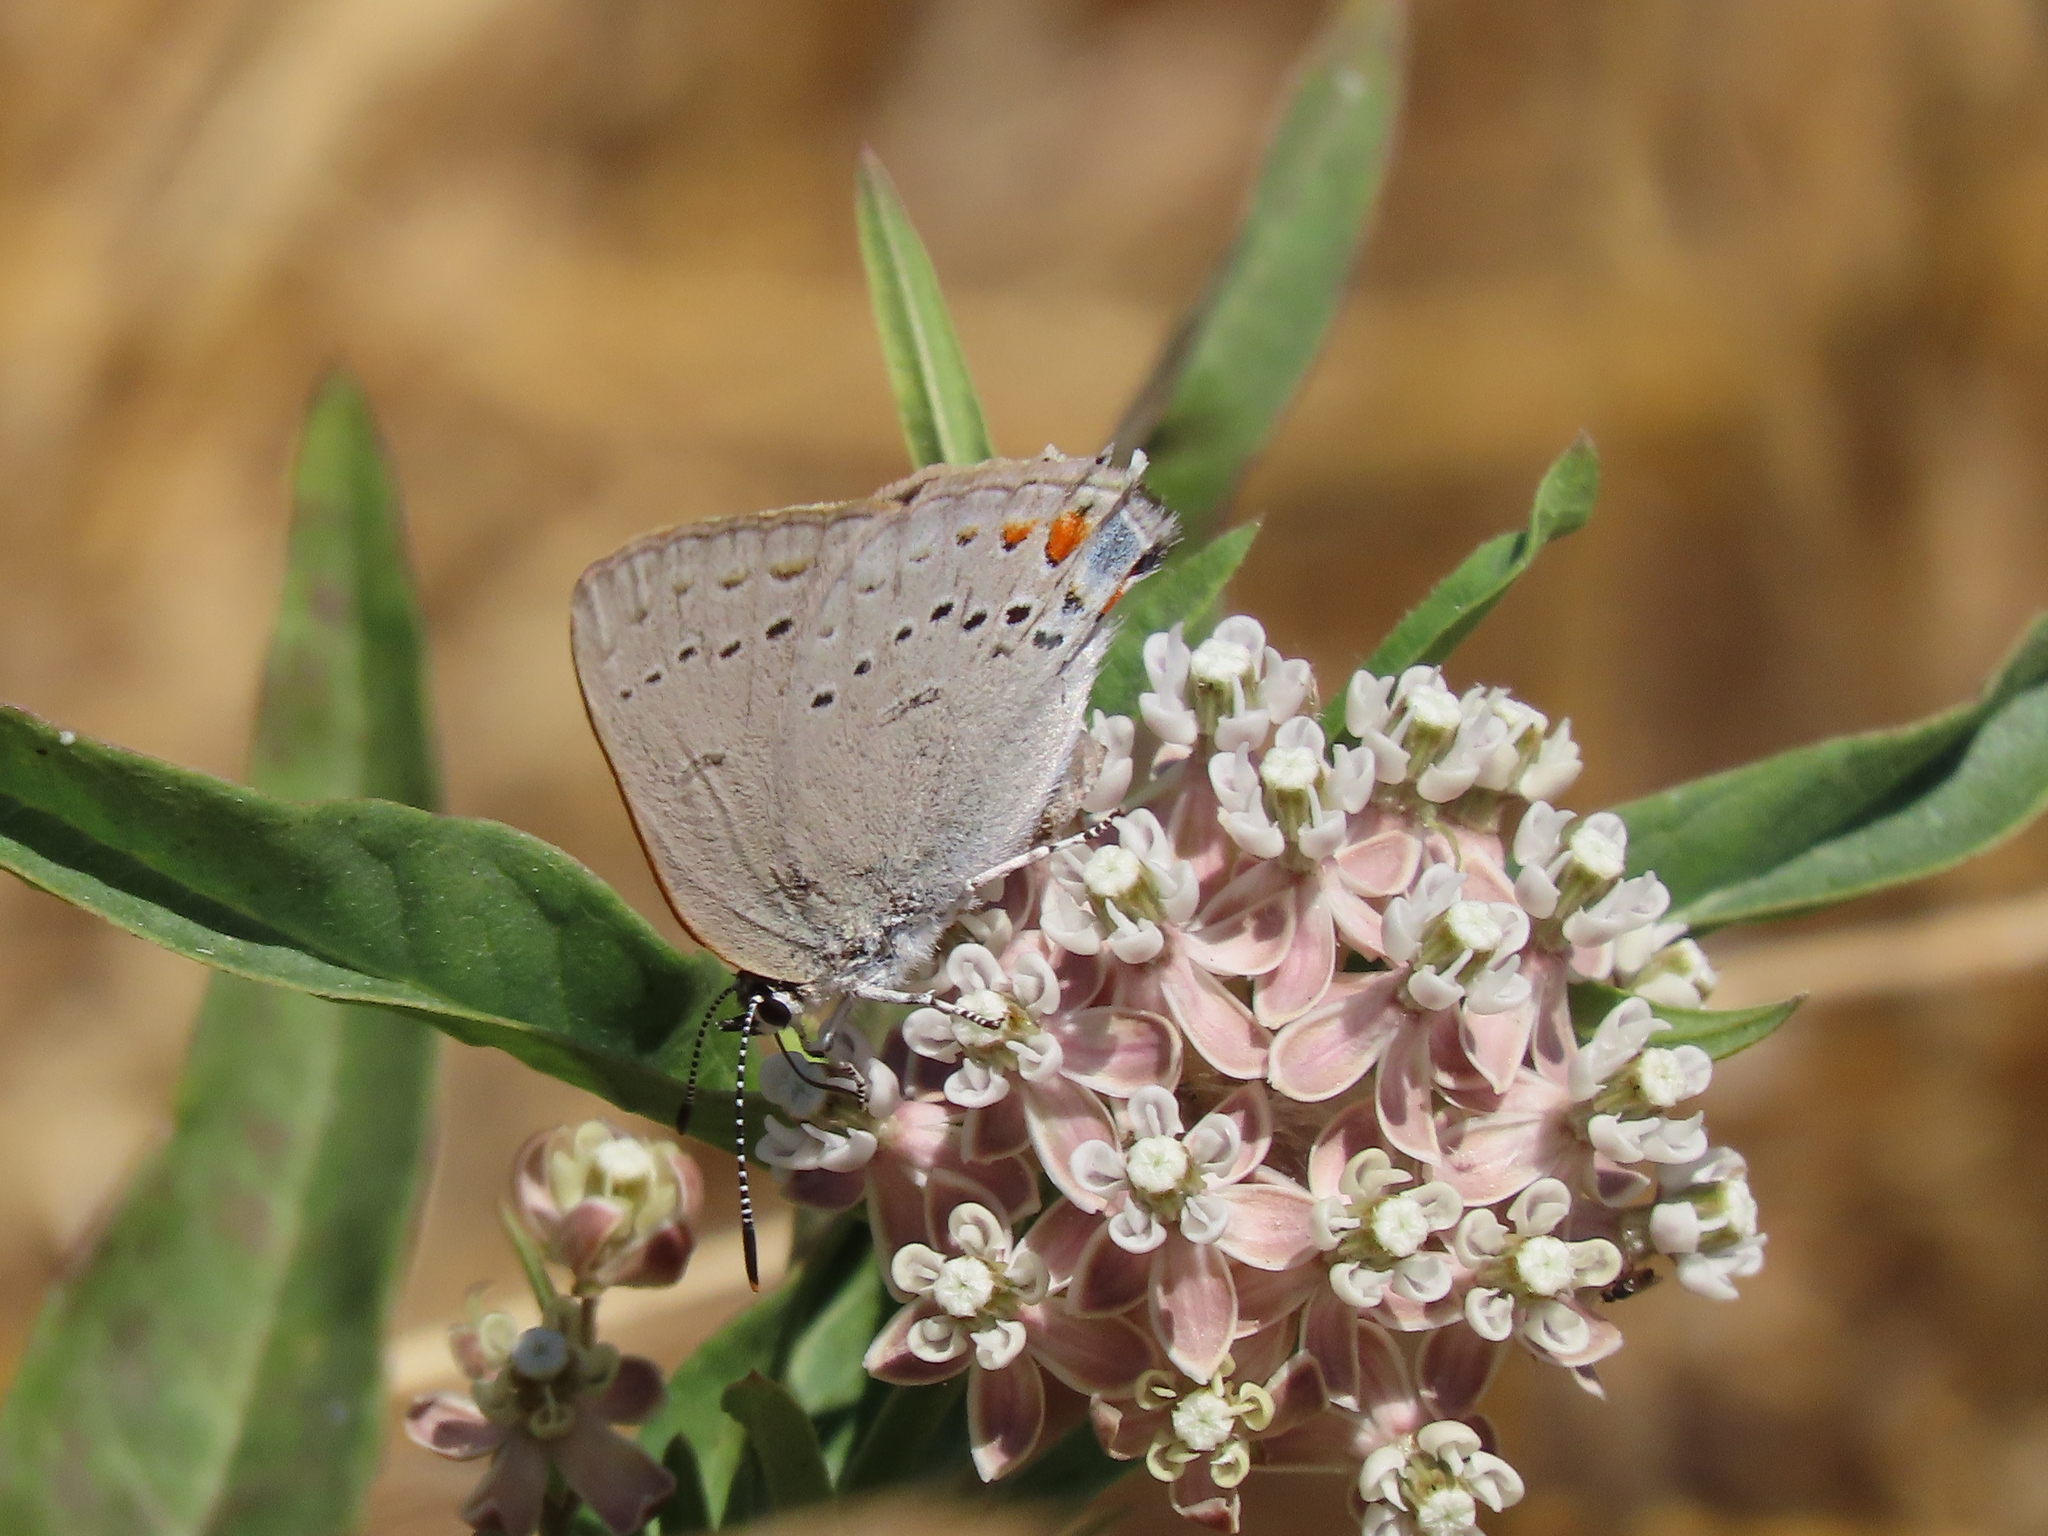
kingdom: Animalia
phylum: Arthropoda
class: Insecta
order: Lepidoptera
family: Lycaenidae
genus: Strymon
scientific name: Strymon sylvinus
